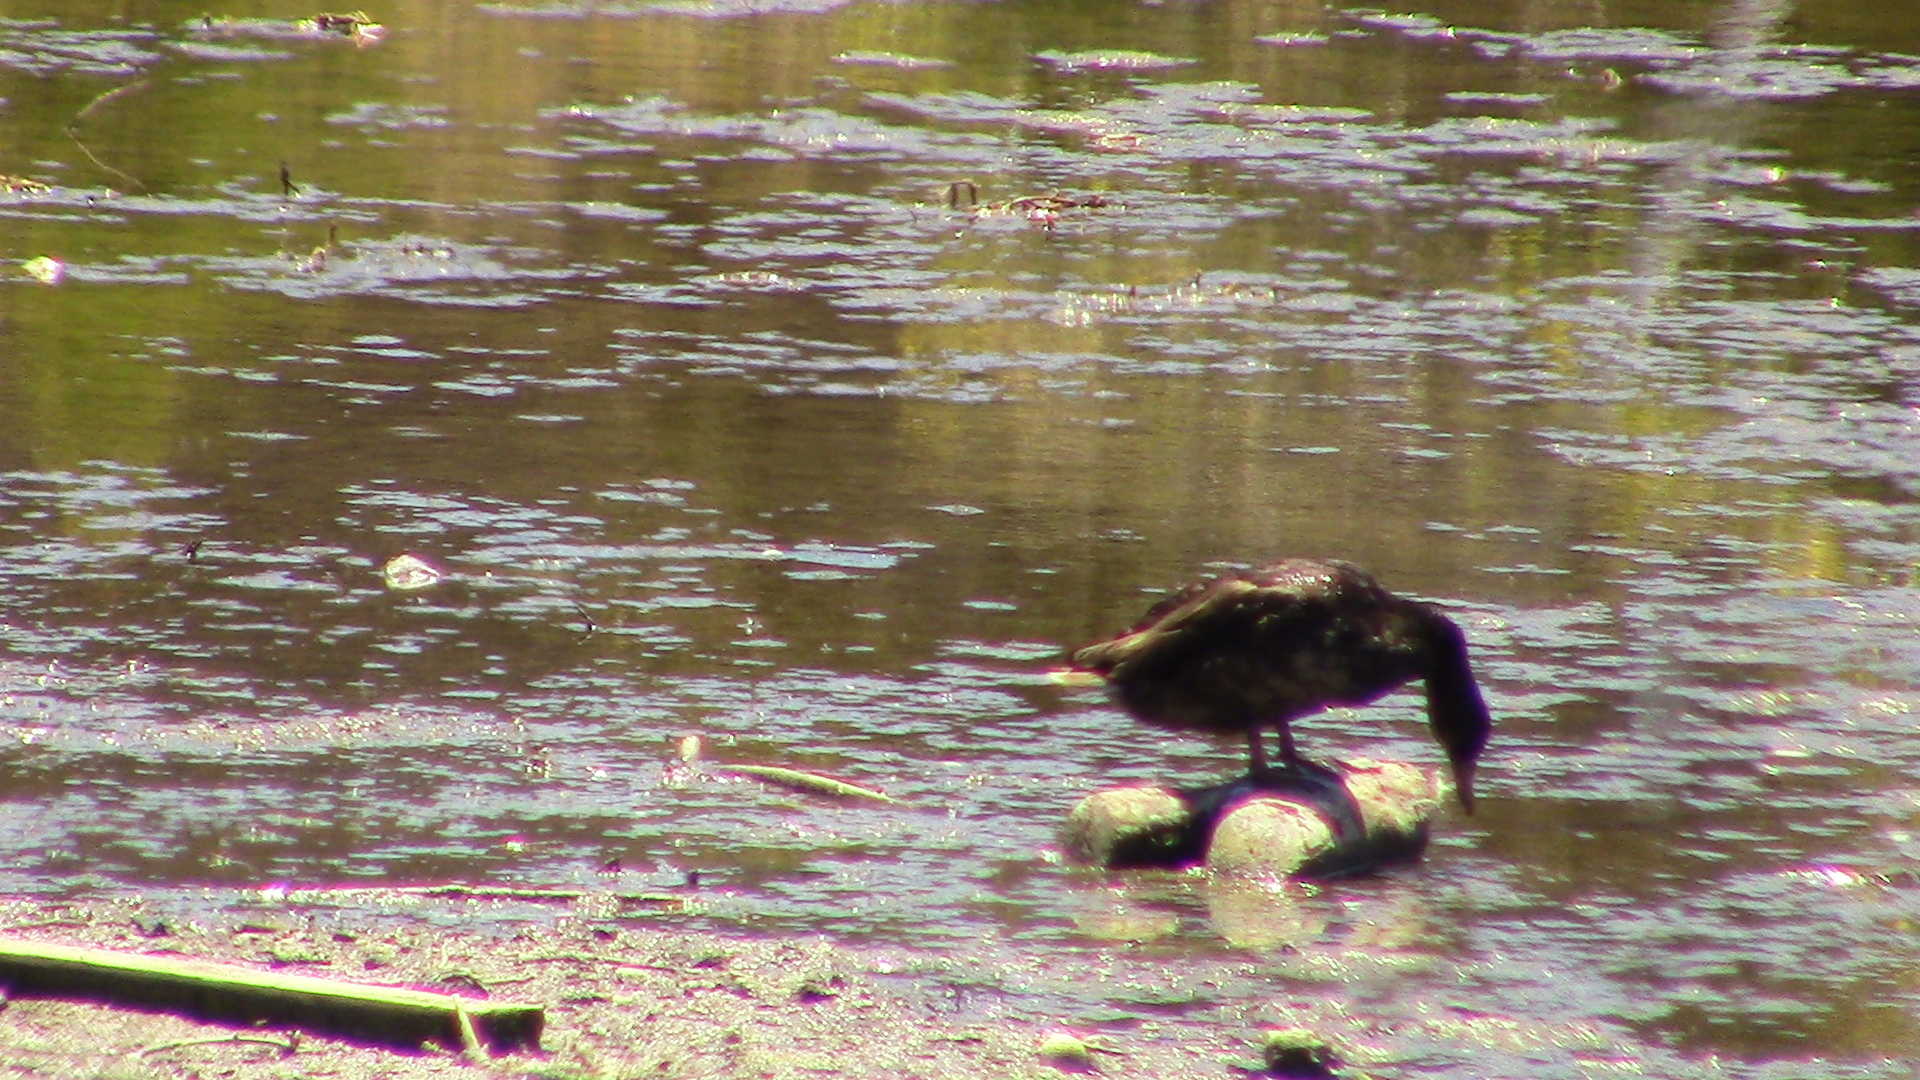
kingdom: Animalia
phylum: Chordata
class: Aves
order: Gruiformes
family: Rallidae
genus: Fulica
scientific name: Fulica americana
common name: American coot
